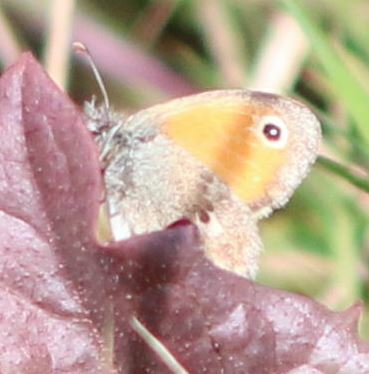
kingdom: Animalia
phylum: Arthropoda
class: Insecta
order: Lepidoptera
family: Nymphalidae
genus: Coenonympha
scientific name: Coenonympha pamphilus
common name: Small heath
